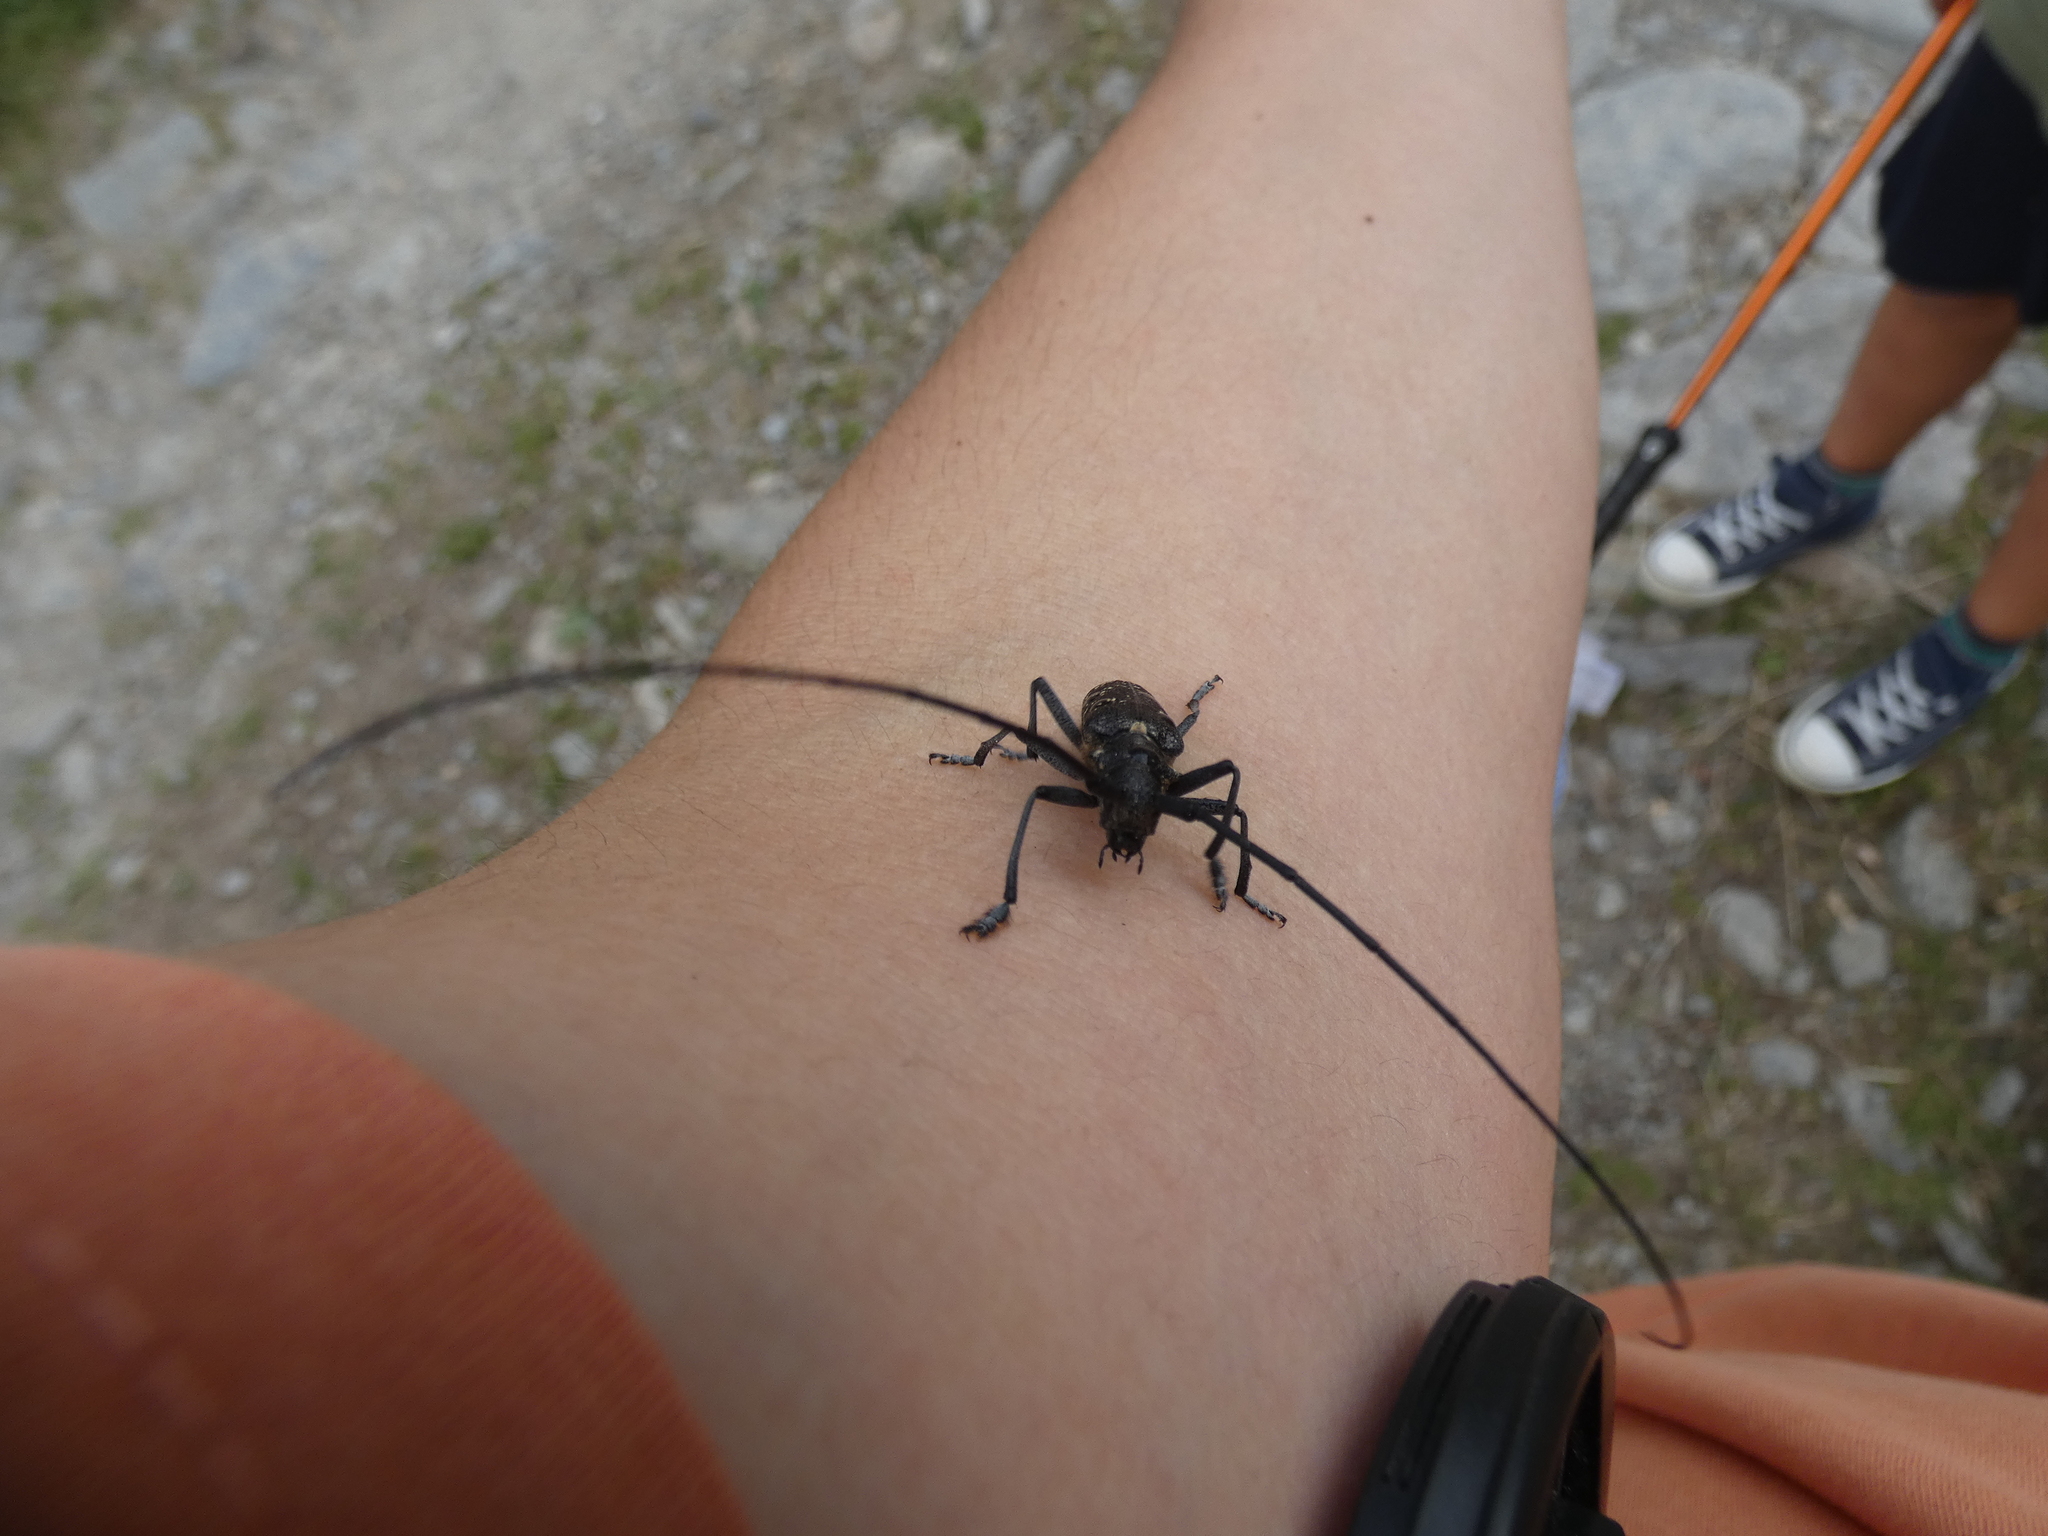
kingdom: Animalia
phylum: Arthropoda
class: Insecta
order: Diptera
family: Syrphidae
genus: Chrysotoxum
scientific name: Chrysotoxum bicincta
